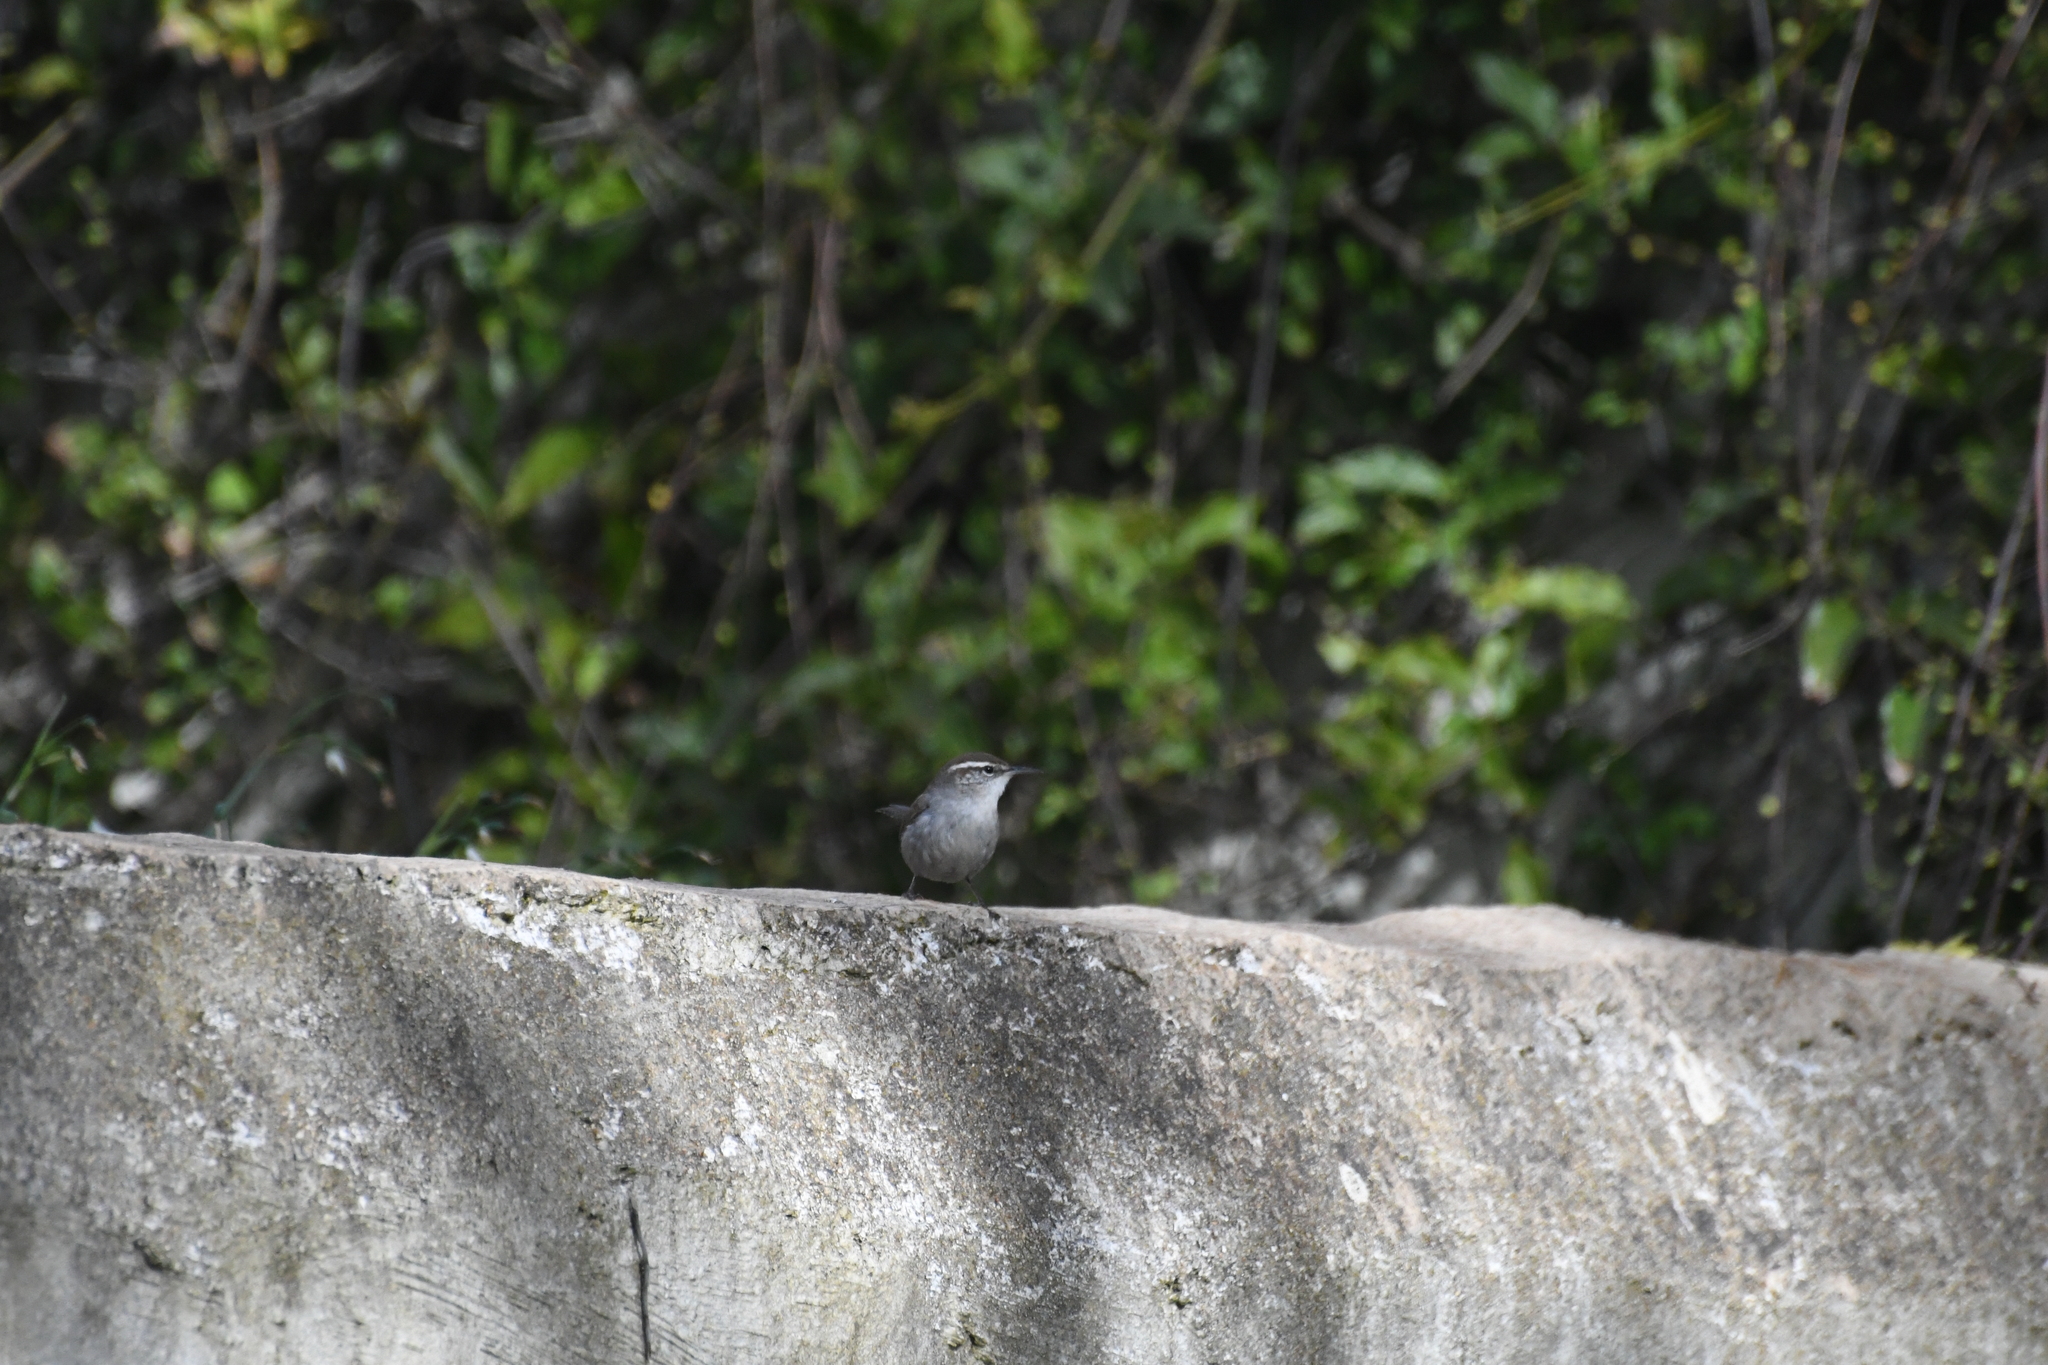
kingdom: Animalia
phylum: Chordata
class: Aves
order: Passeriformes
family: Troglodytidae
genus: Thryomanes
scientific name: Thryomanes bewickii
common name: Bewick's wren
